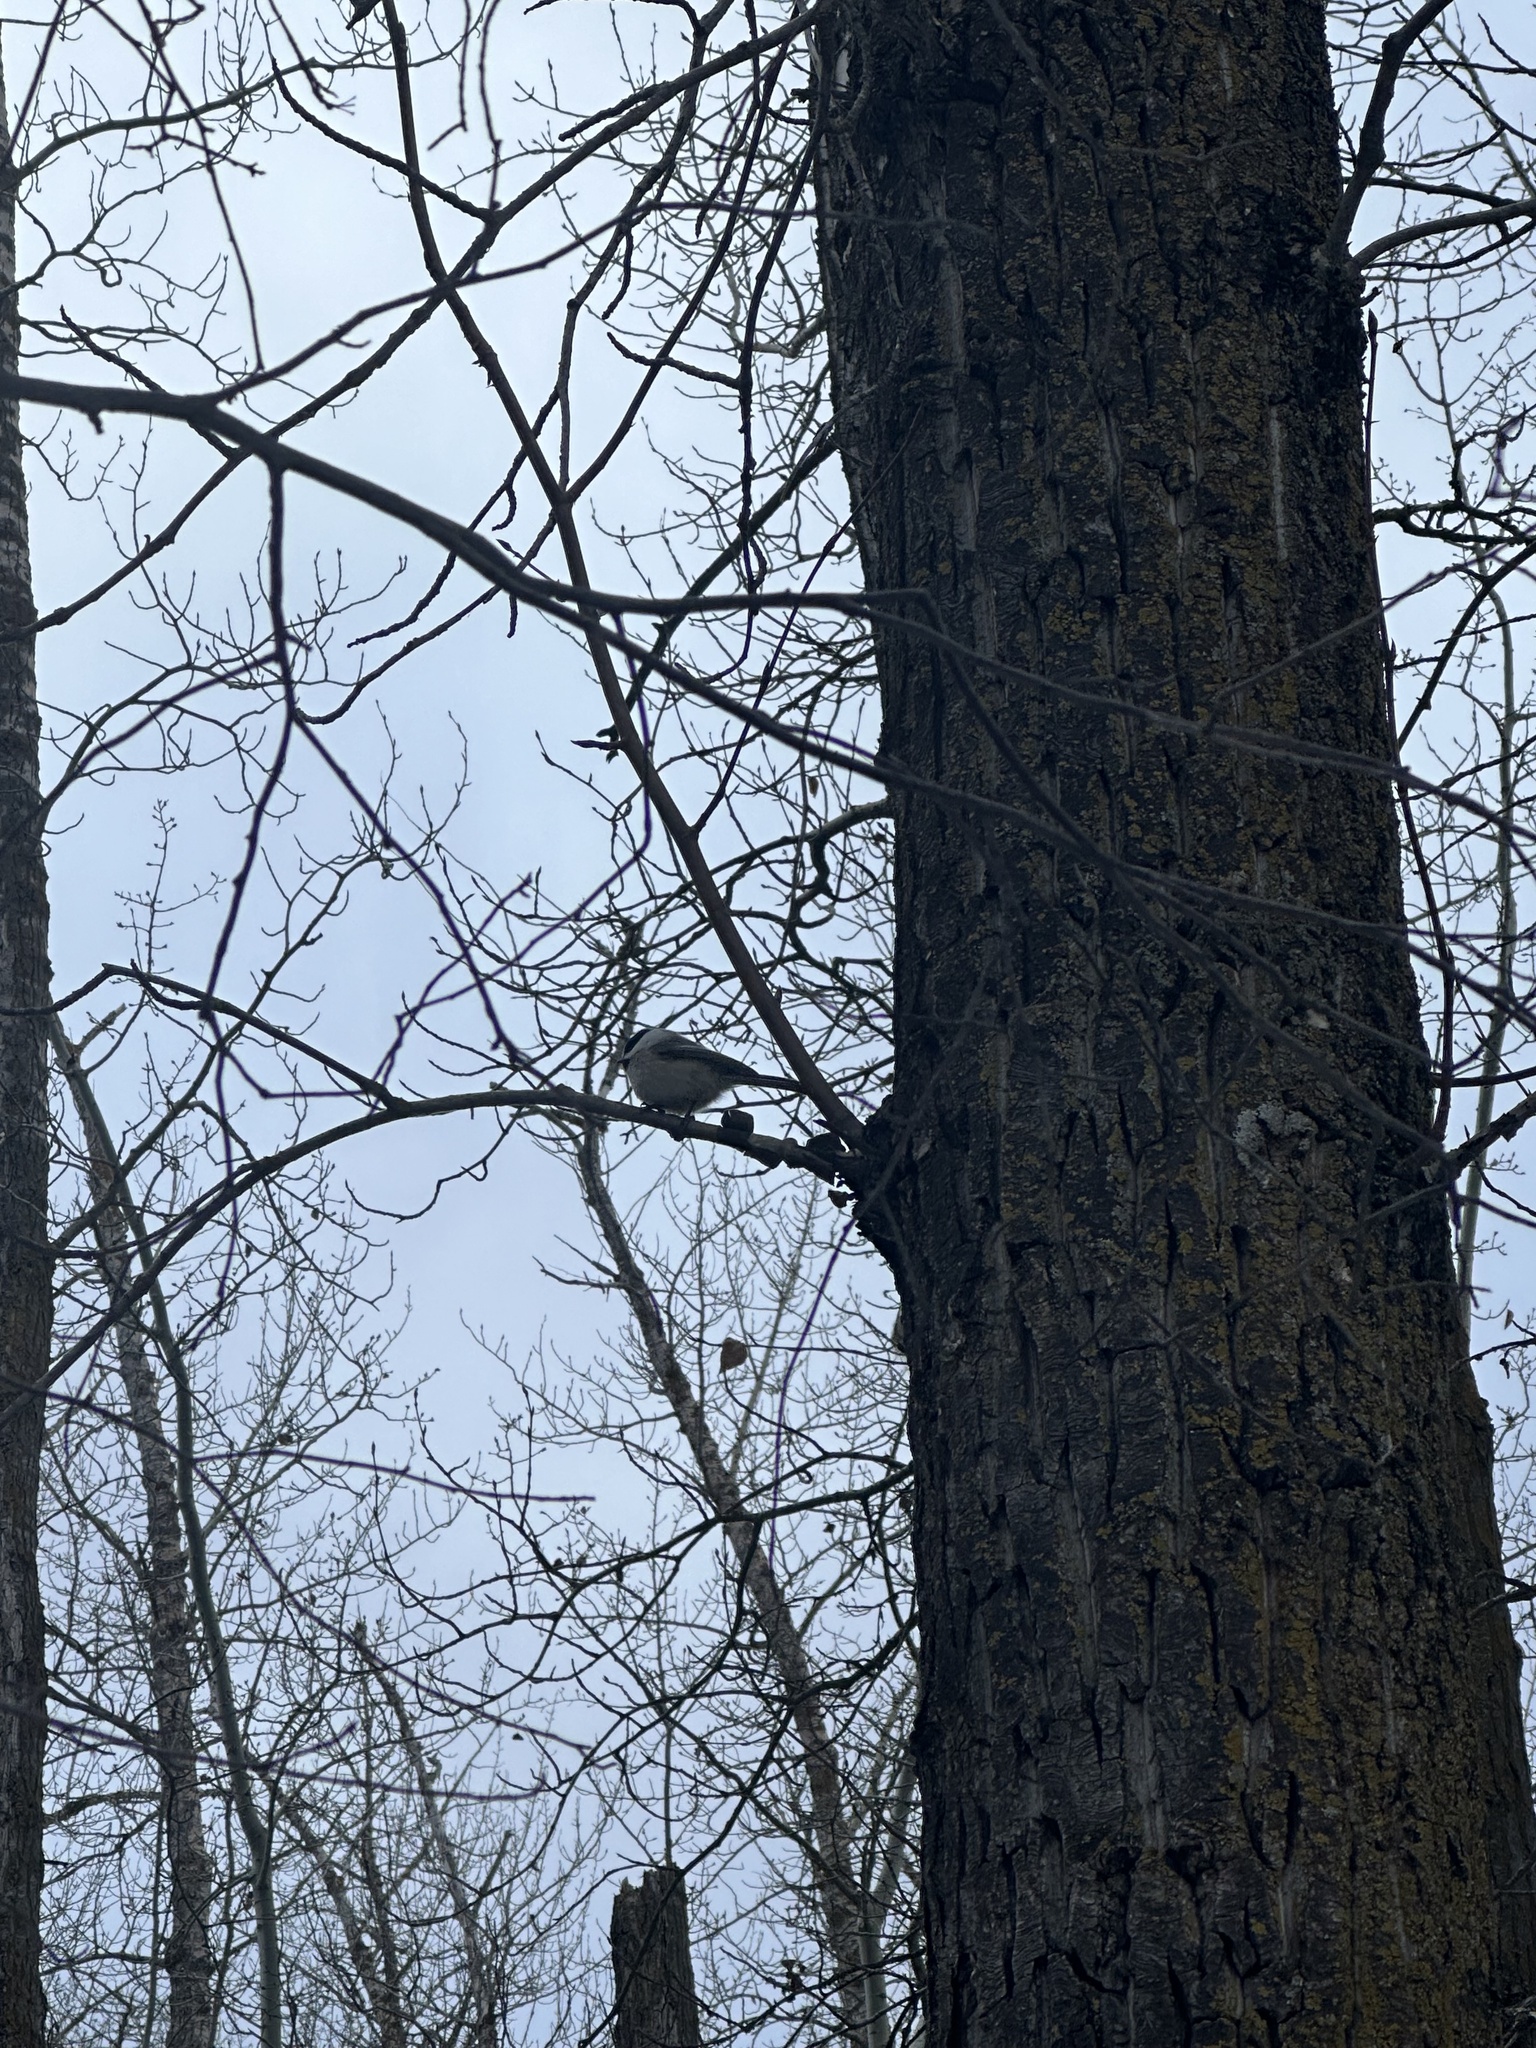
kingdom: Animalia
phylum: Chordata
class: Aves
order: Passeriformes
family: Paridae
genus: Poecile
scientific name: Poecile atricapillus
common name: Black-capped chickadee
